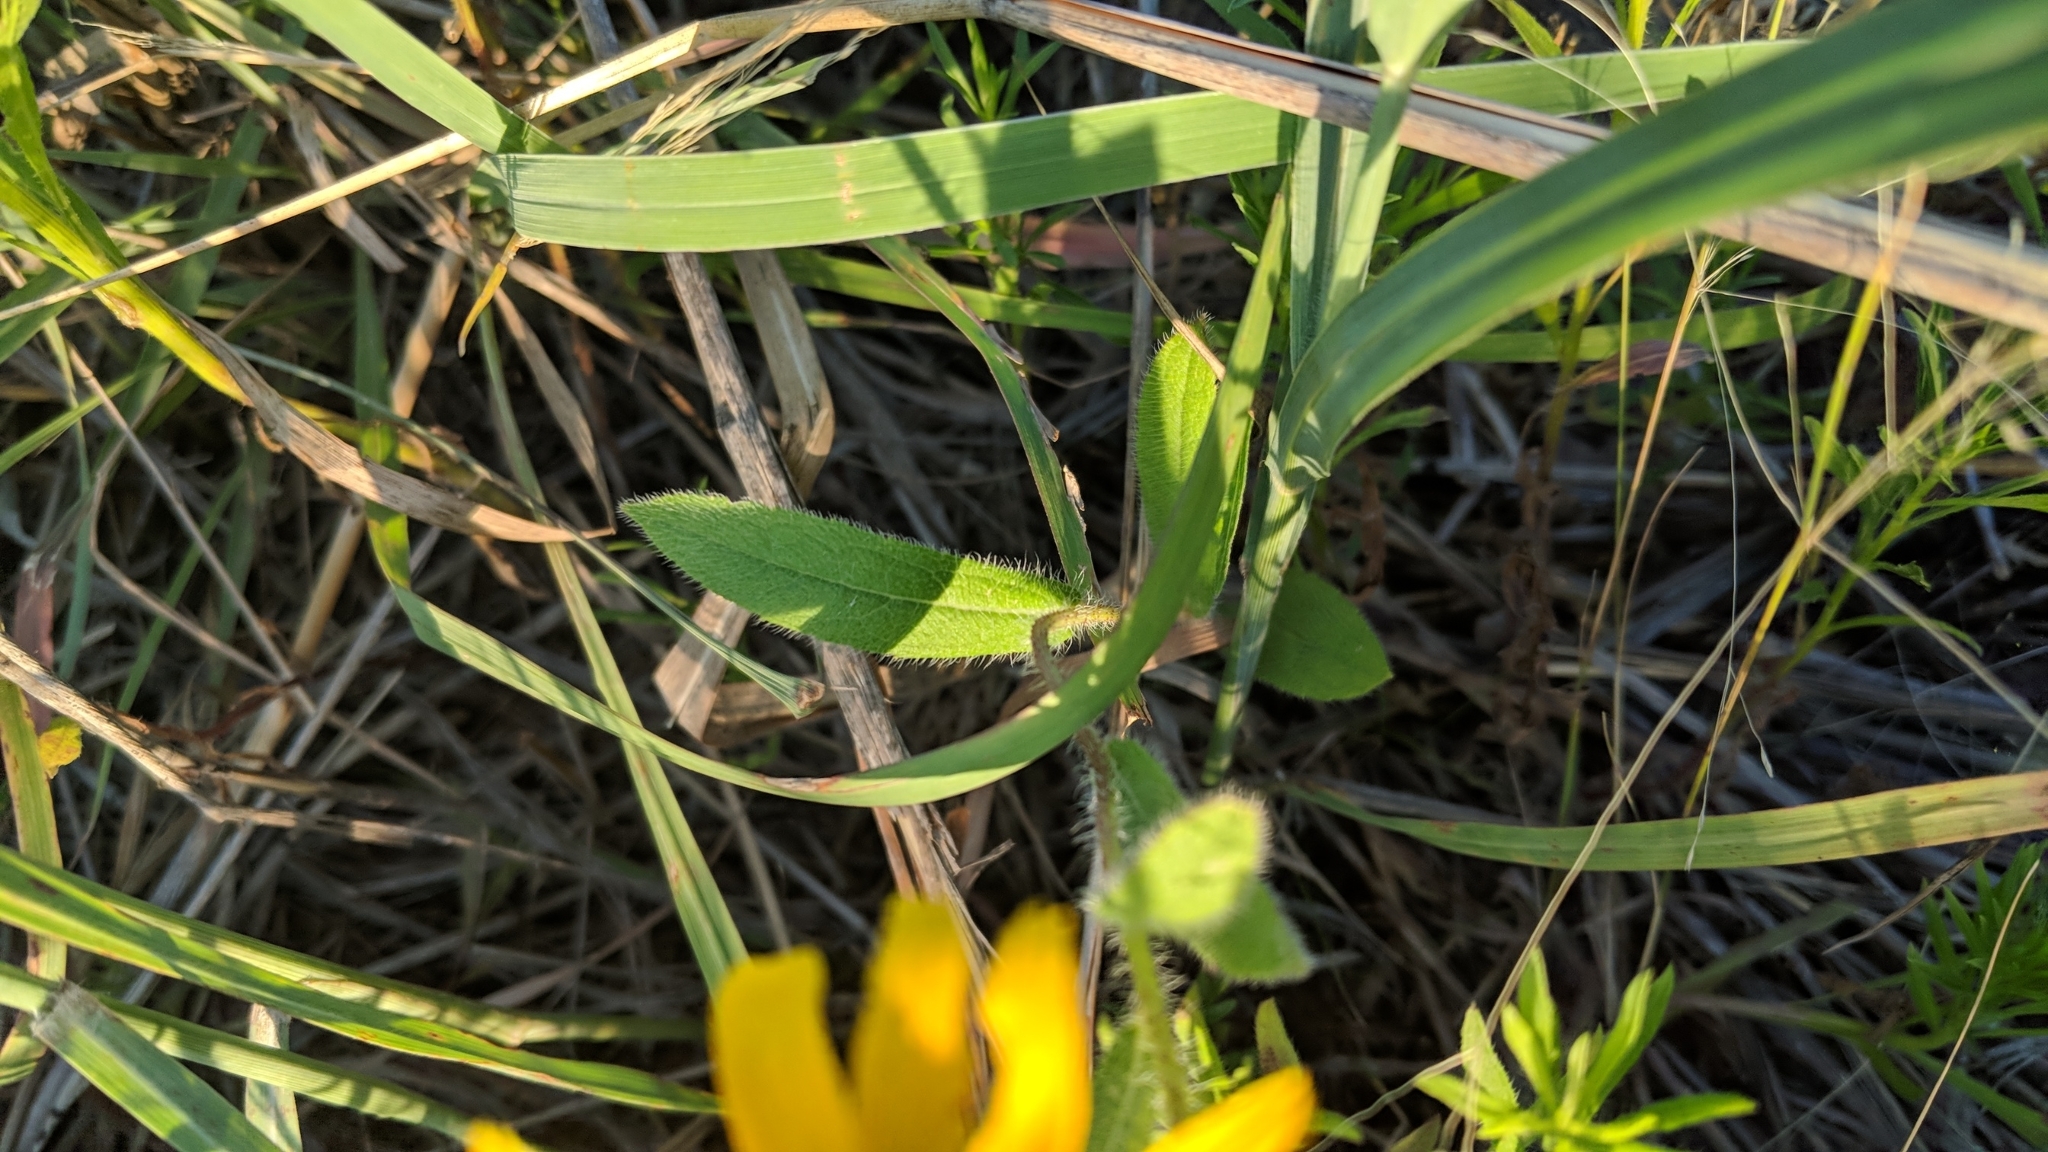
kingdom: Plantae
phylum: Tracheophyta
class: Magnoliopsida
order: Asterales
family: Asteraceae
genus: Rudbeckia
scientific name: Rudbeckia hirta
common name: Black-eyed-susan
